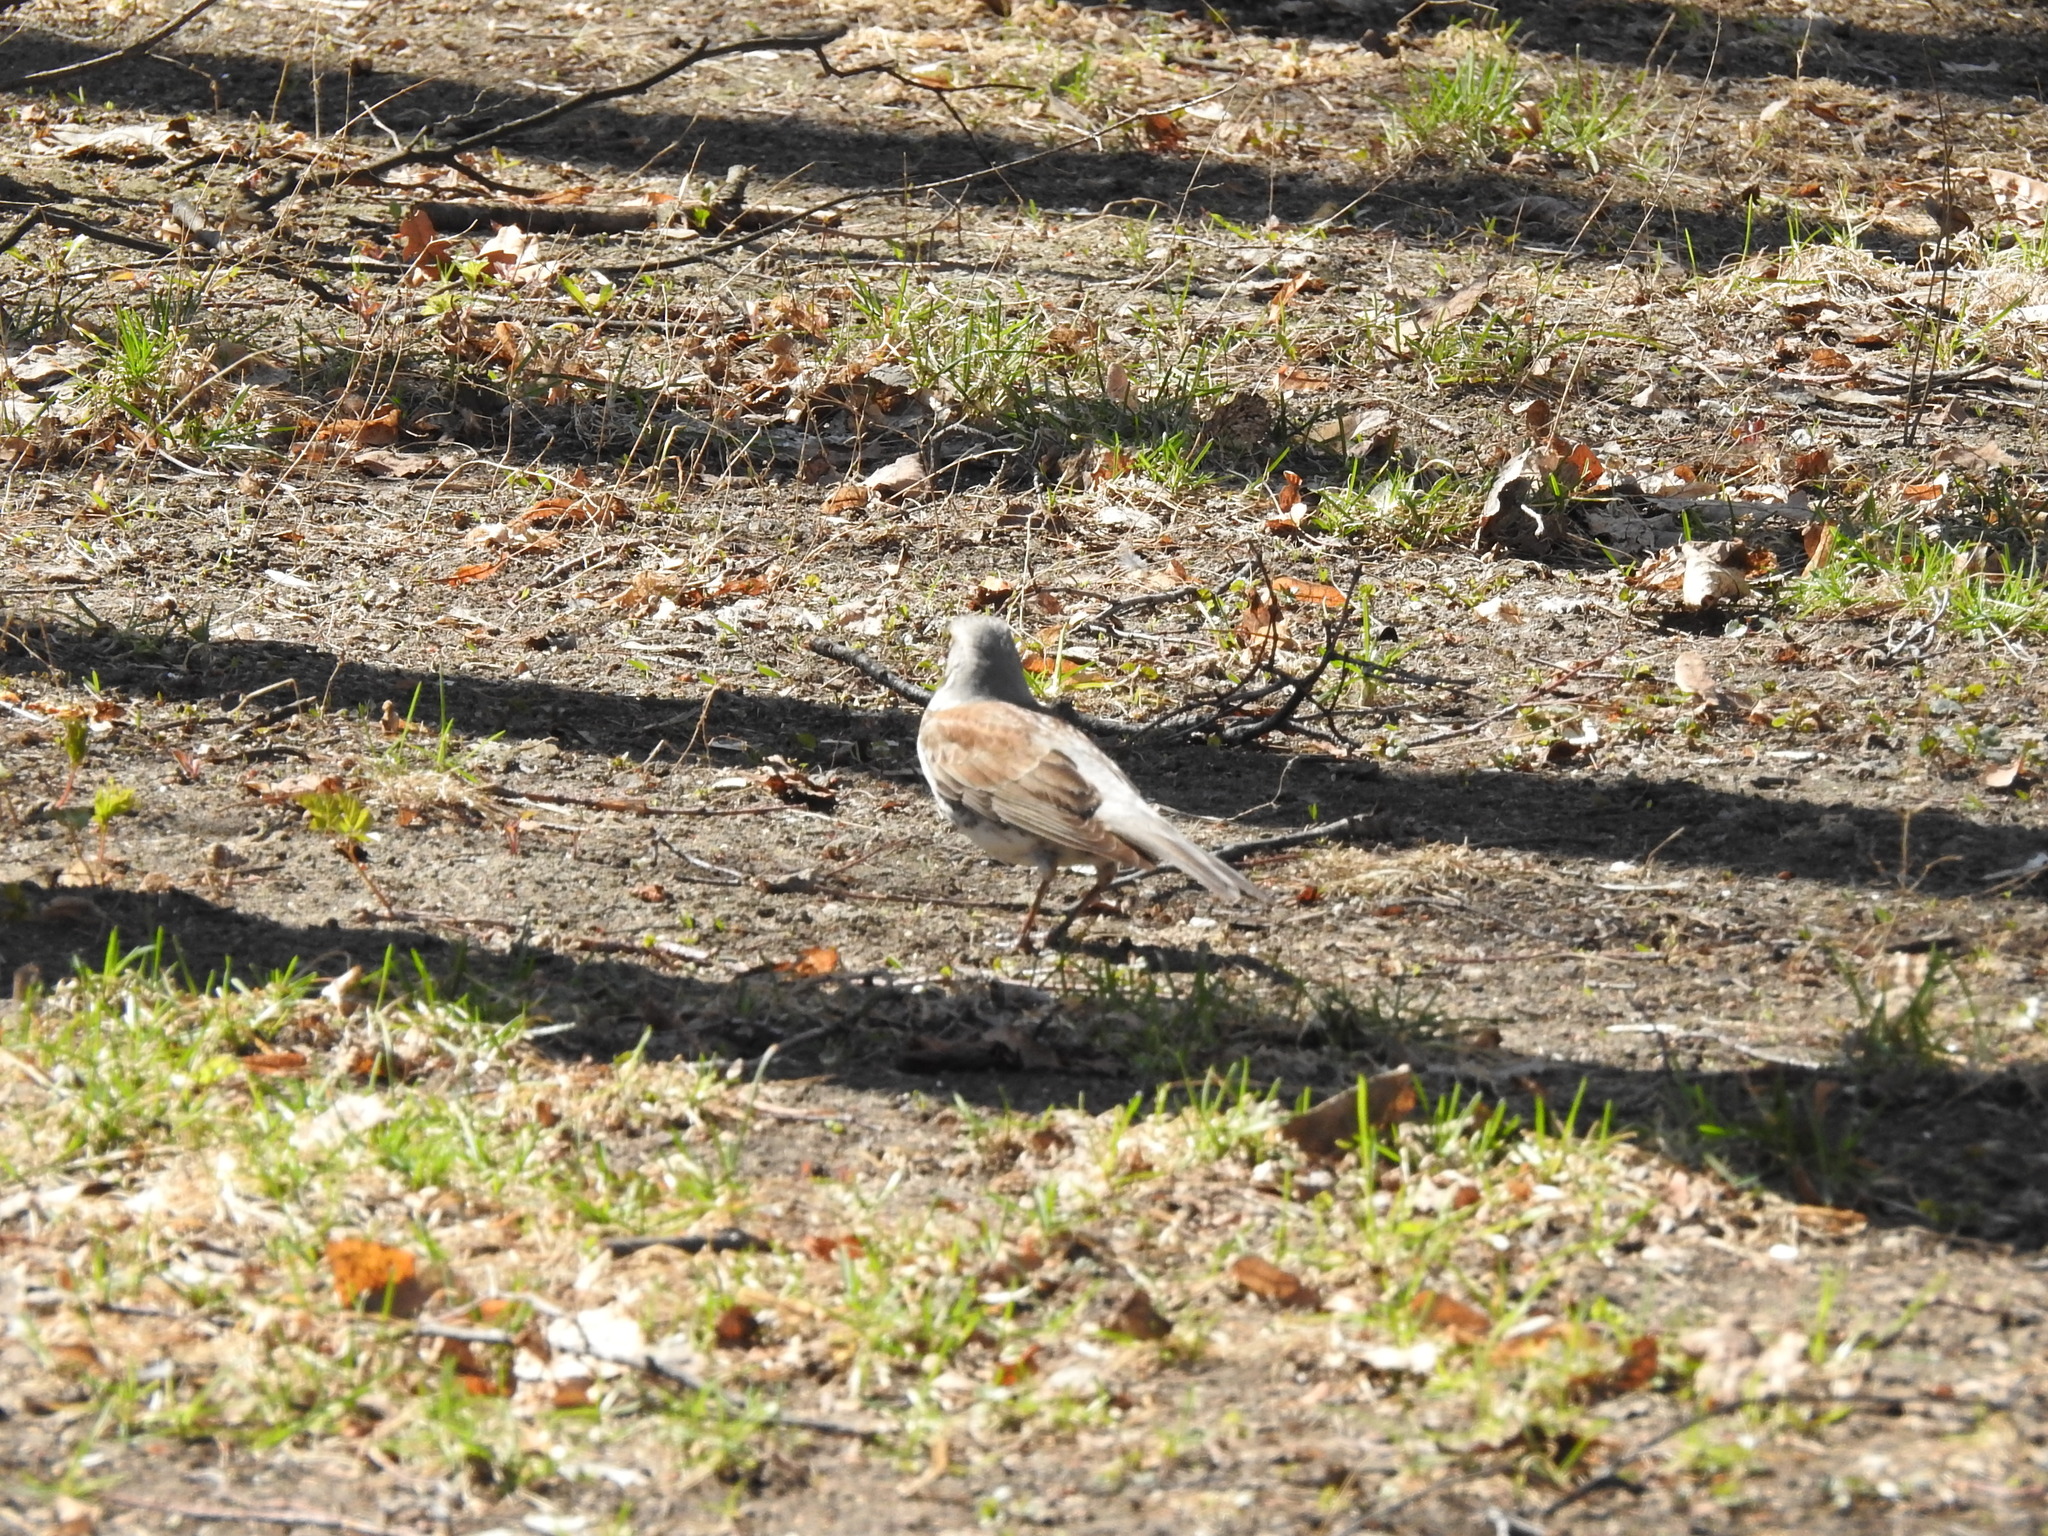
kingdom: Animalia
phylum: Chordata
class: Aves
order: Passeriformes
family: Turdidae
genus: Turdus
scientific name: Turdus pilaris
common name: Fieldfare
